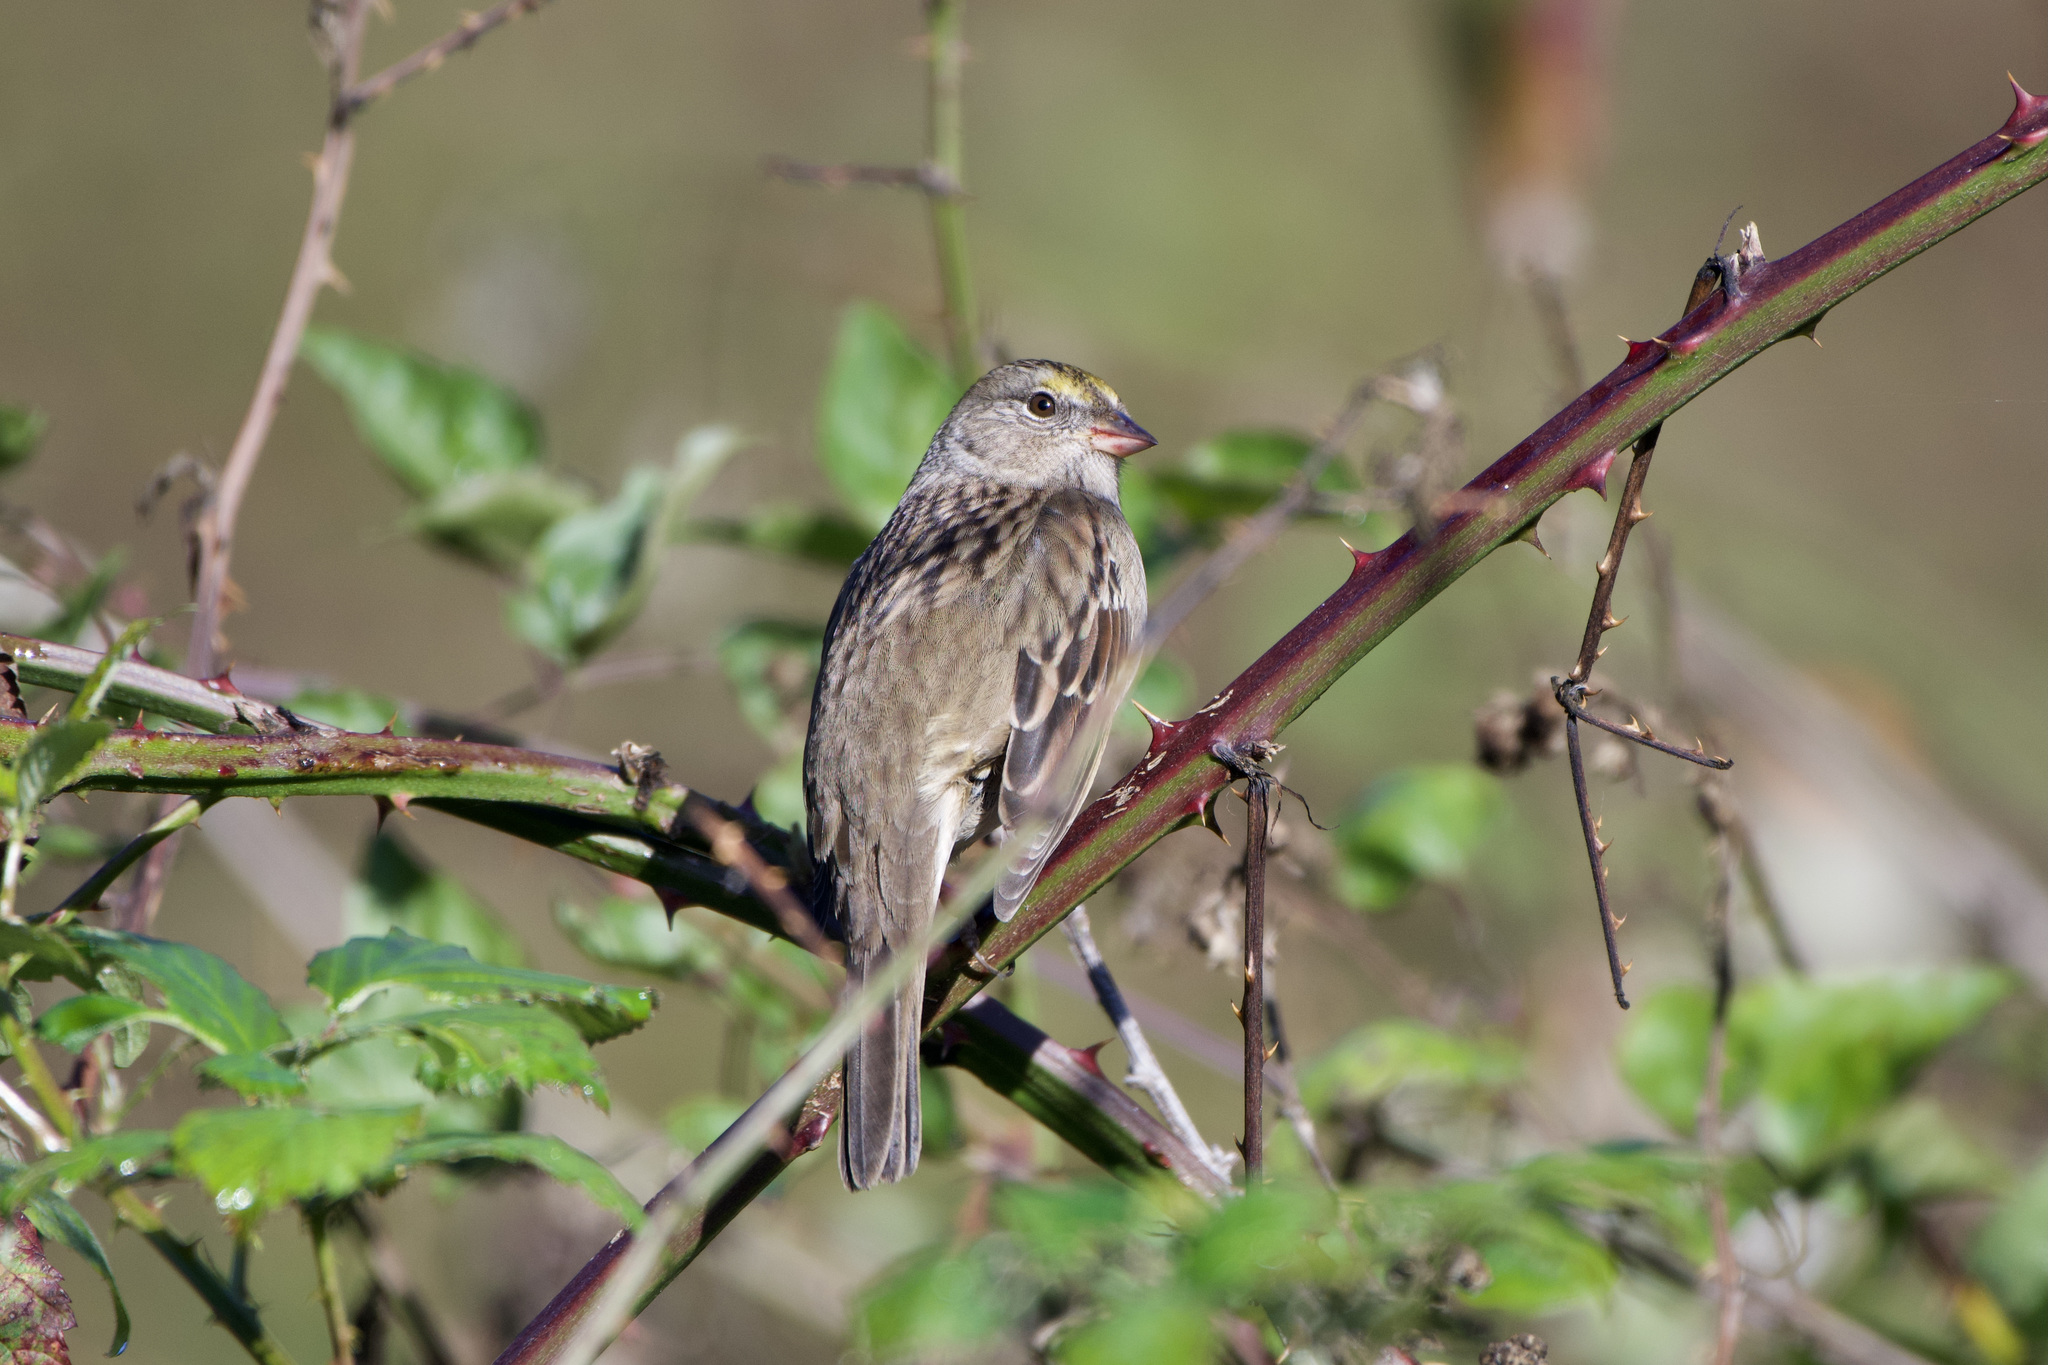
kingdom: Animalia
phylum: Chordata
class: Aves
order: Passeriformes
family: Passerellidae
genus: Zonotrichia
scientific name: Zonotrichia atricapilla
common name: Golden-crowned sparrow
